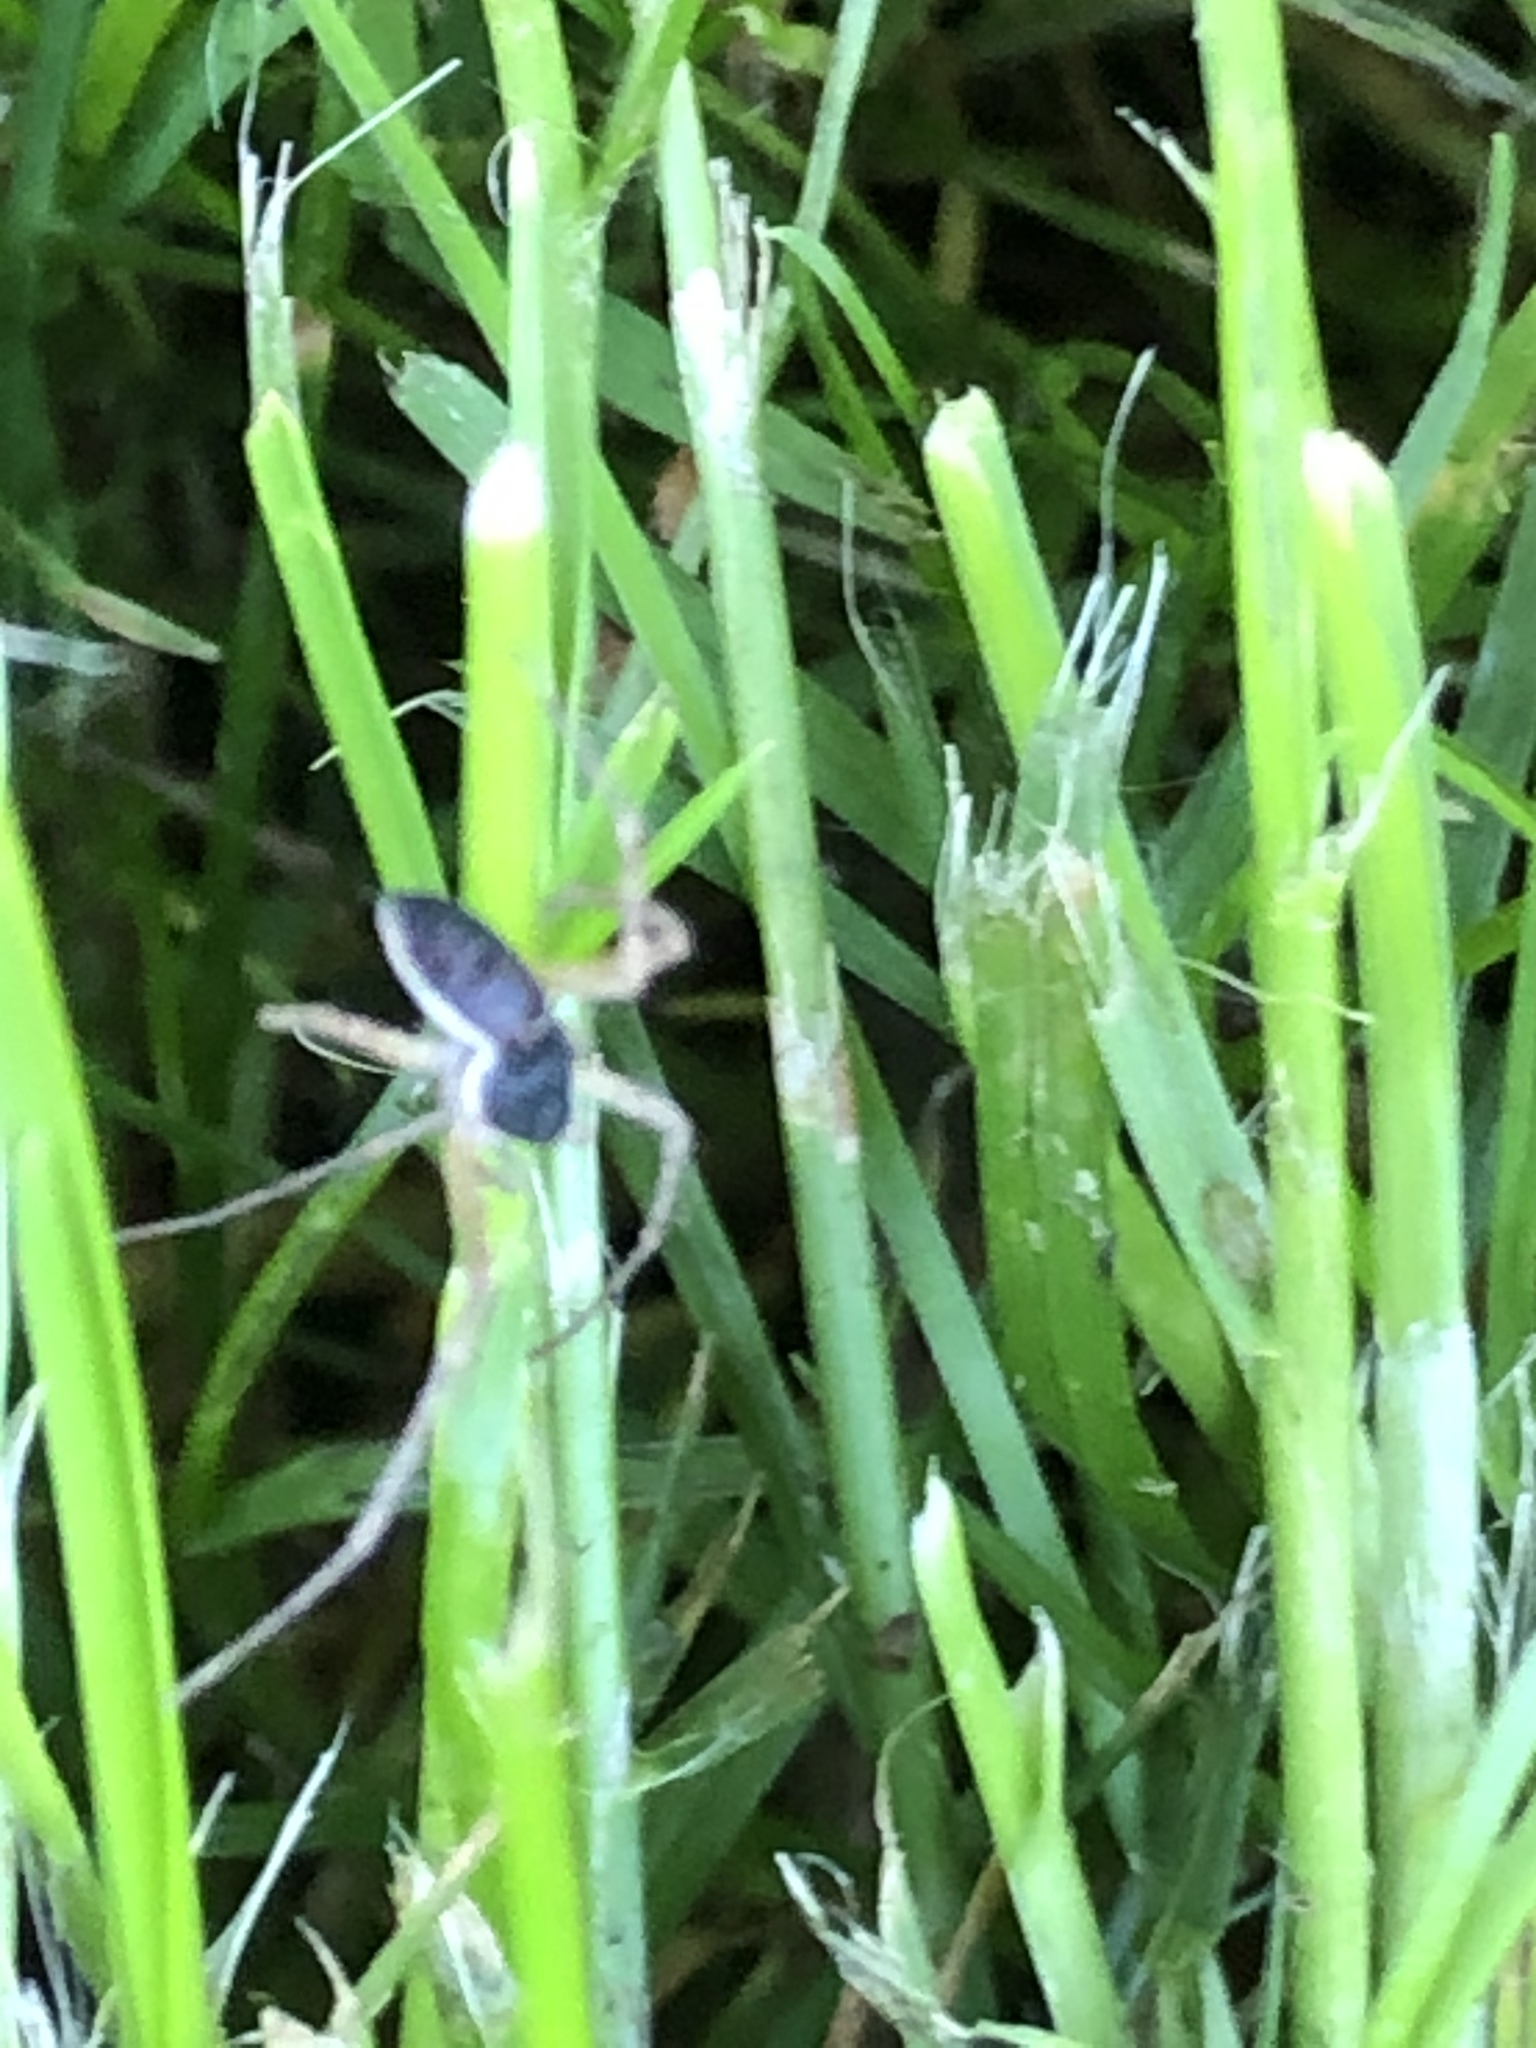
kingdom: Animalia
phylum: Arthropoda
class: Arachnida
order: Araneae
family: Philodromidae
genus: Philodromus
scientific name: Philodromus dispar
